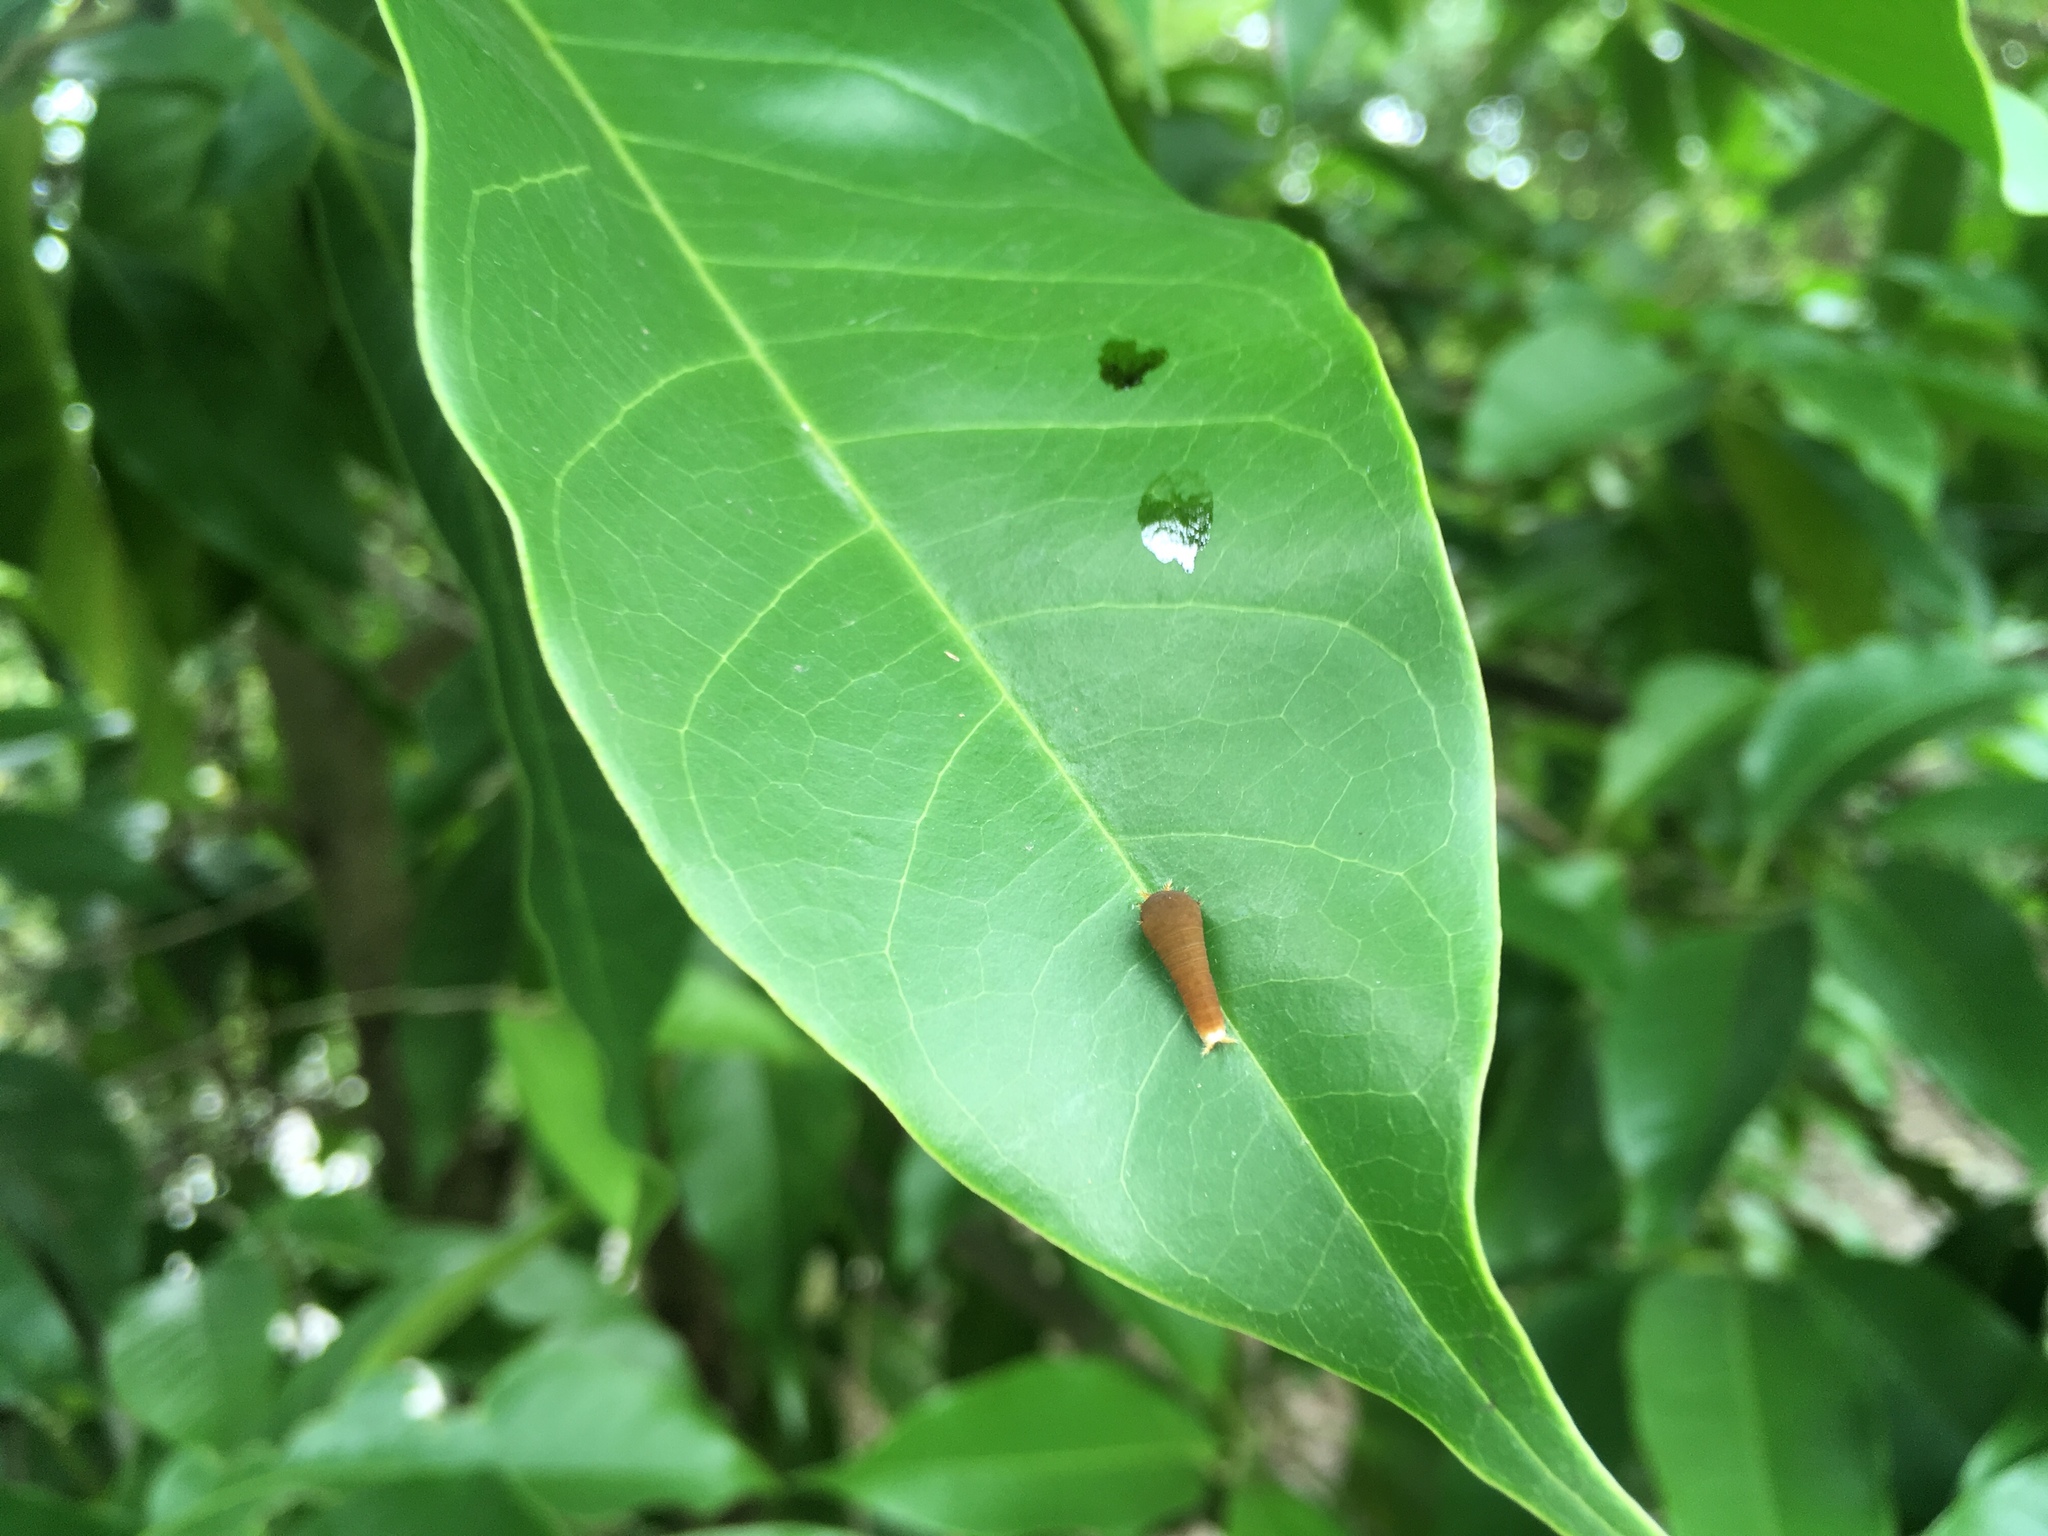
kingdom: Animalia
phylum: Arthropoda
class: Insecta
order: Lepidoptera
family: Papilionidae
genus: Graphium
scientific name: Graphium agamemnon
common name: Tailed jay
